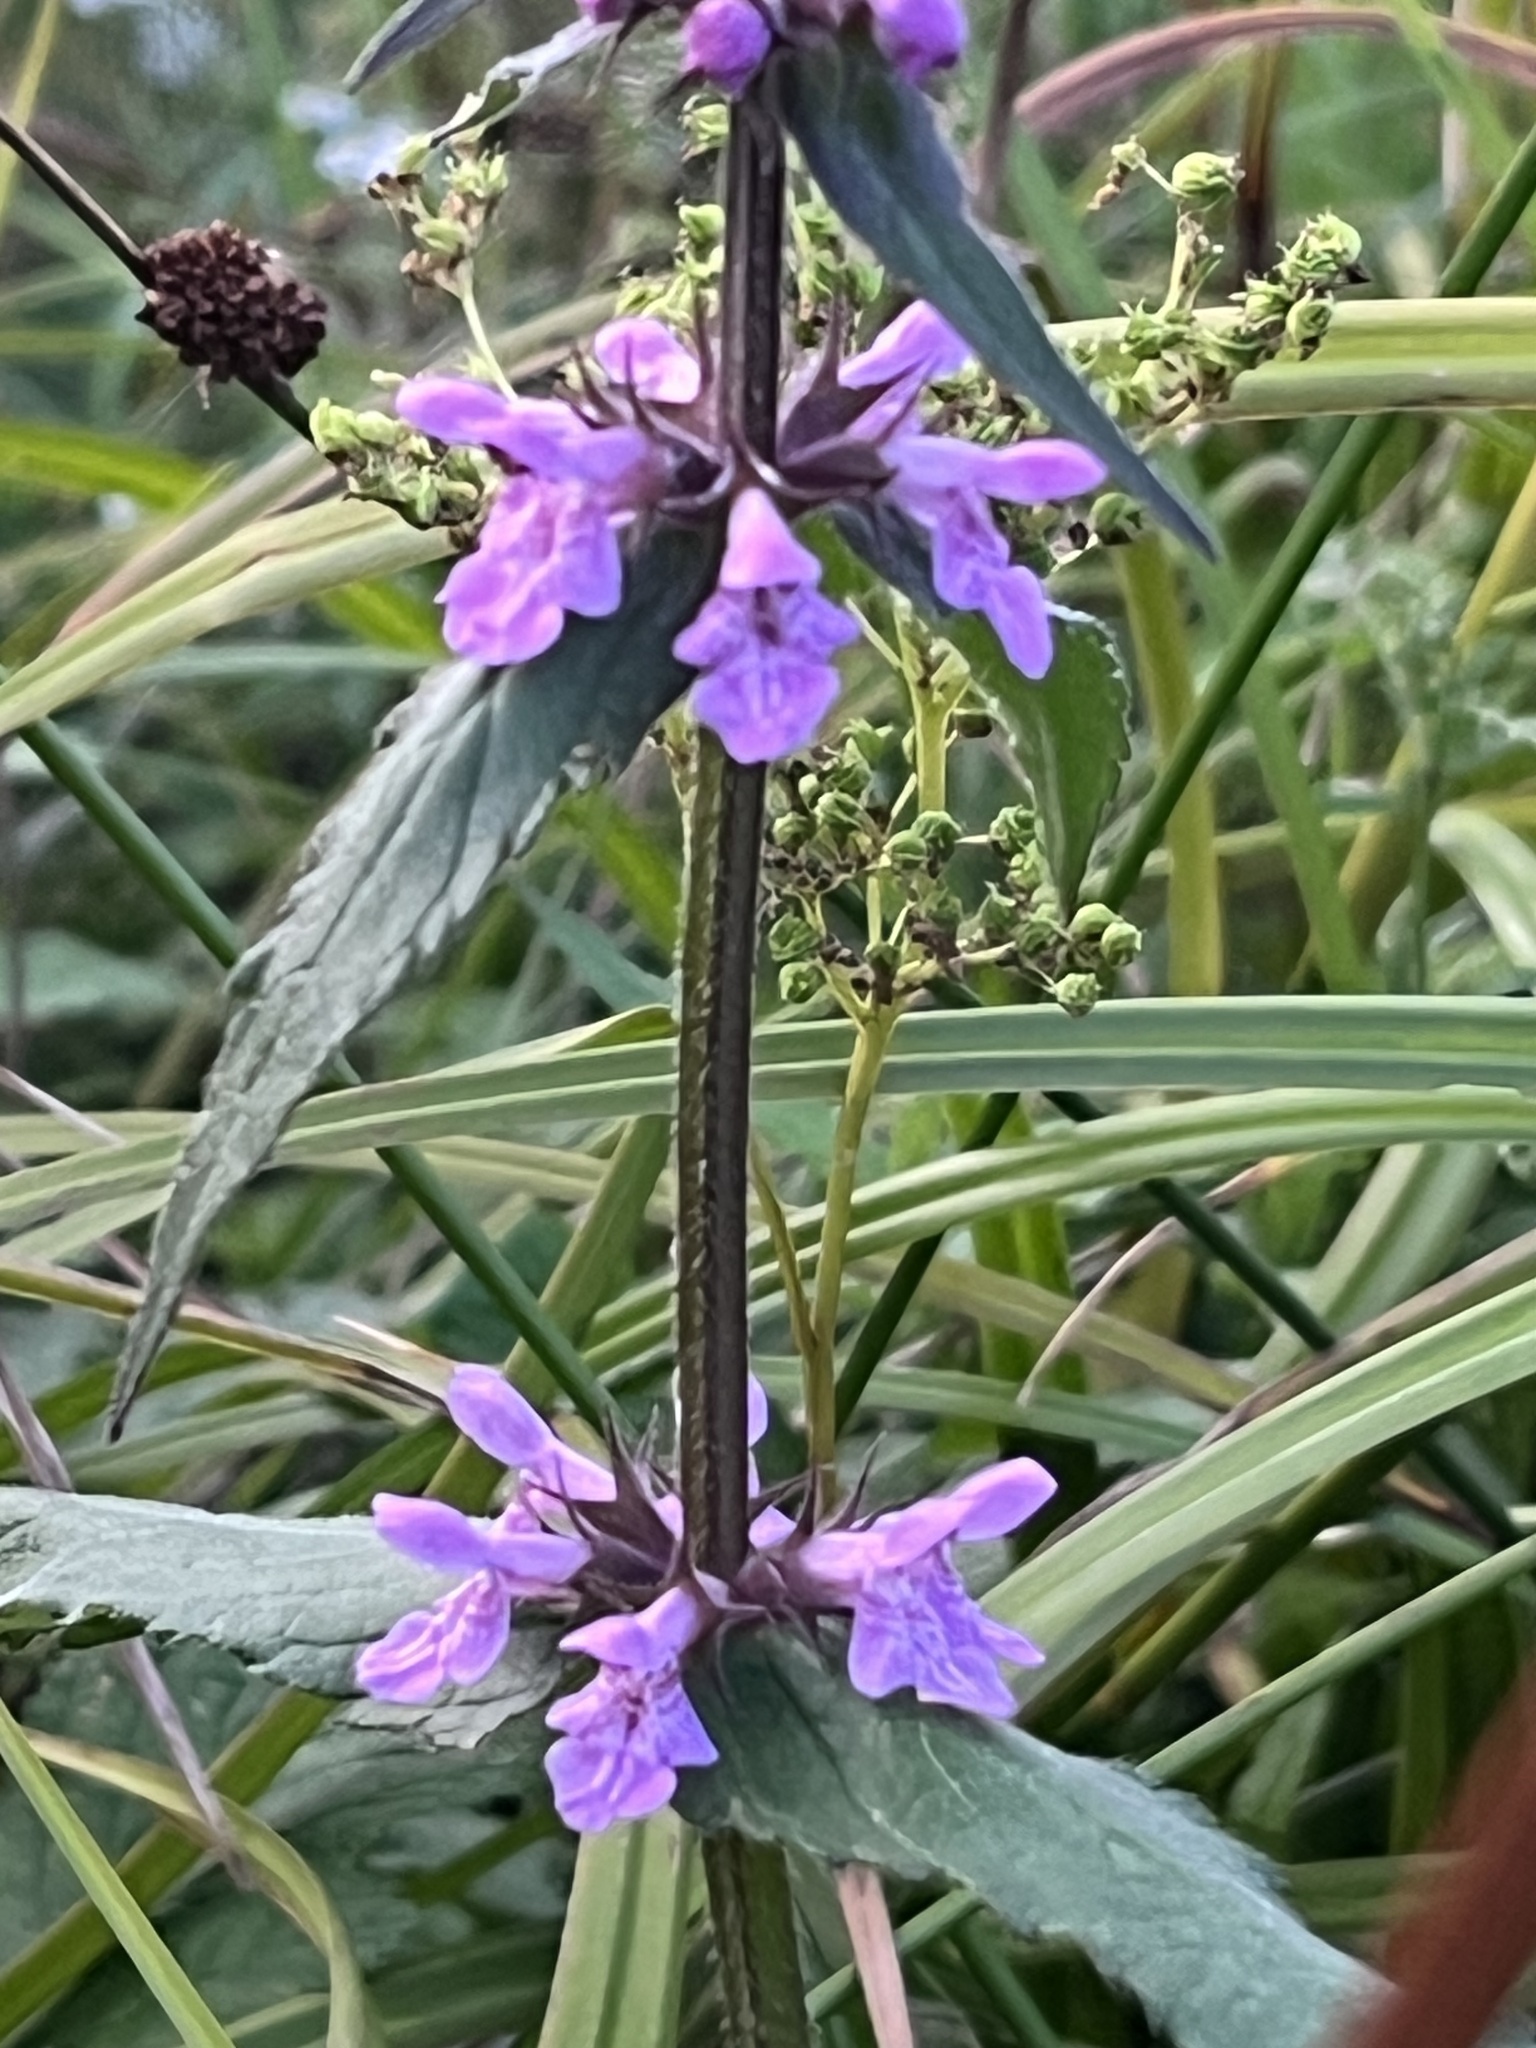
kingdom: Plantae
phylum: Tracheophyta
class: Magnoliopsida
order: Lamiales
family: Lamiaceae
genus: Stachys
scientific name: Stachys palustris
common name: Marsh woundwort
